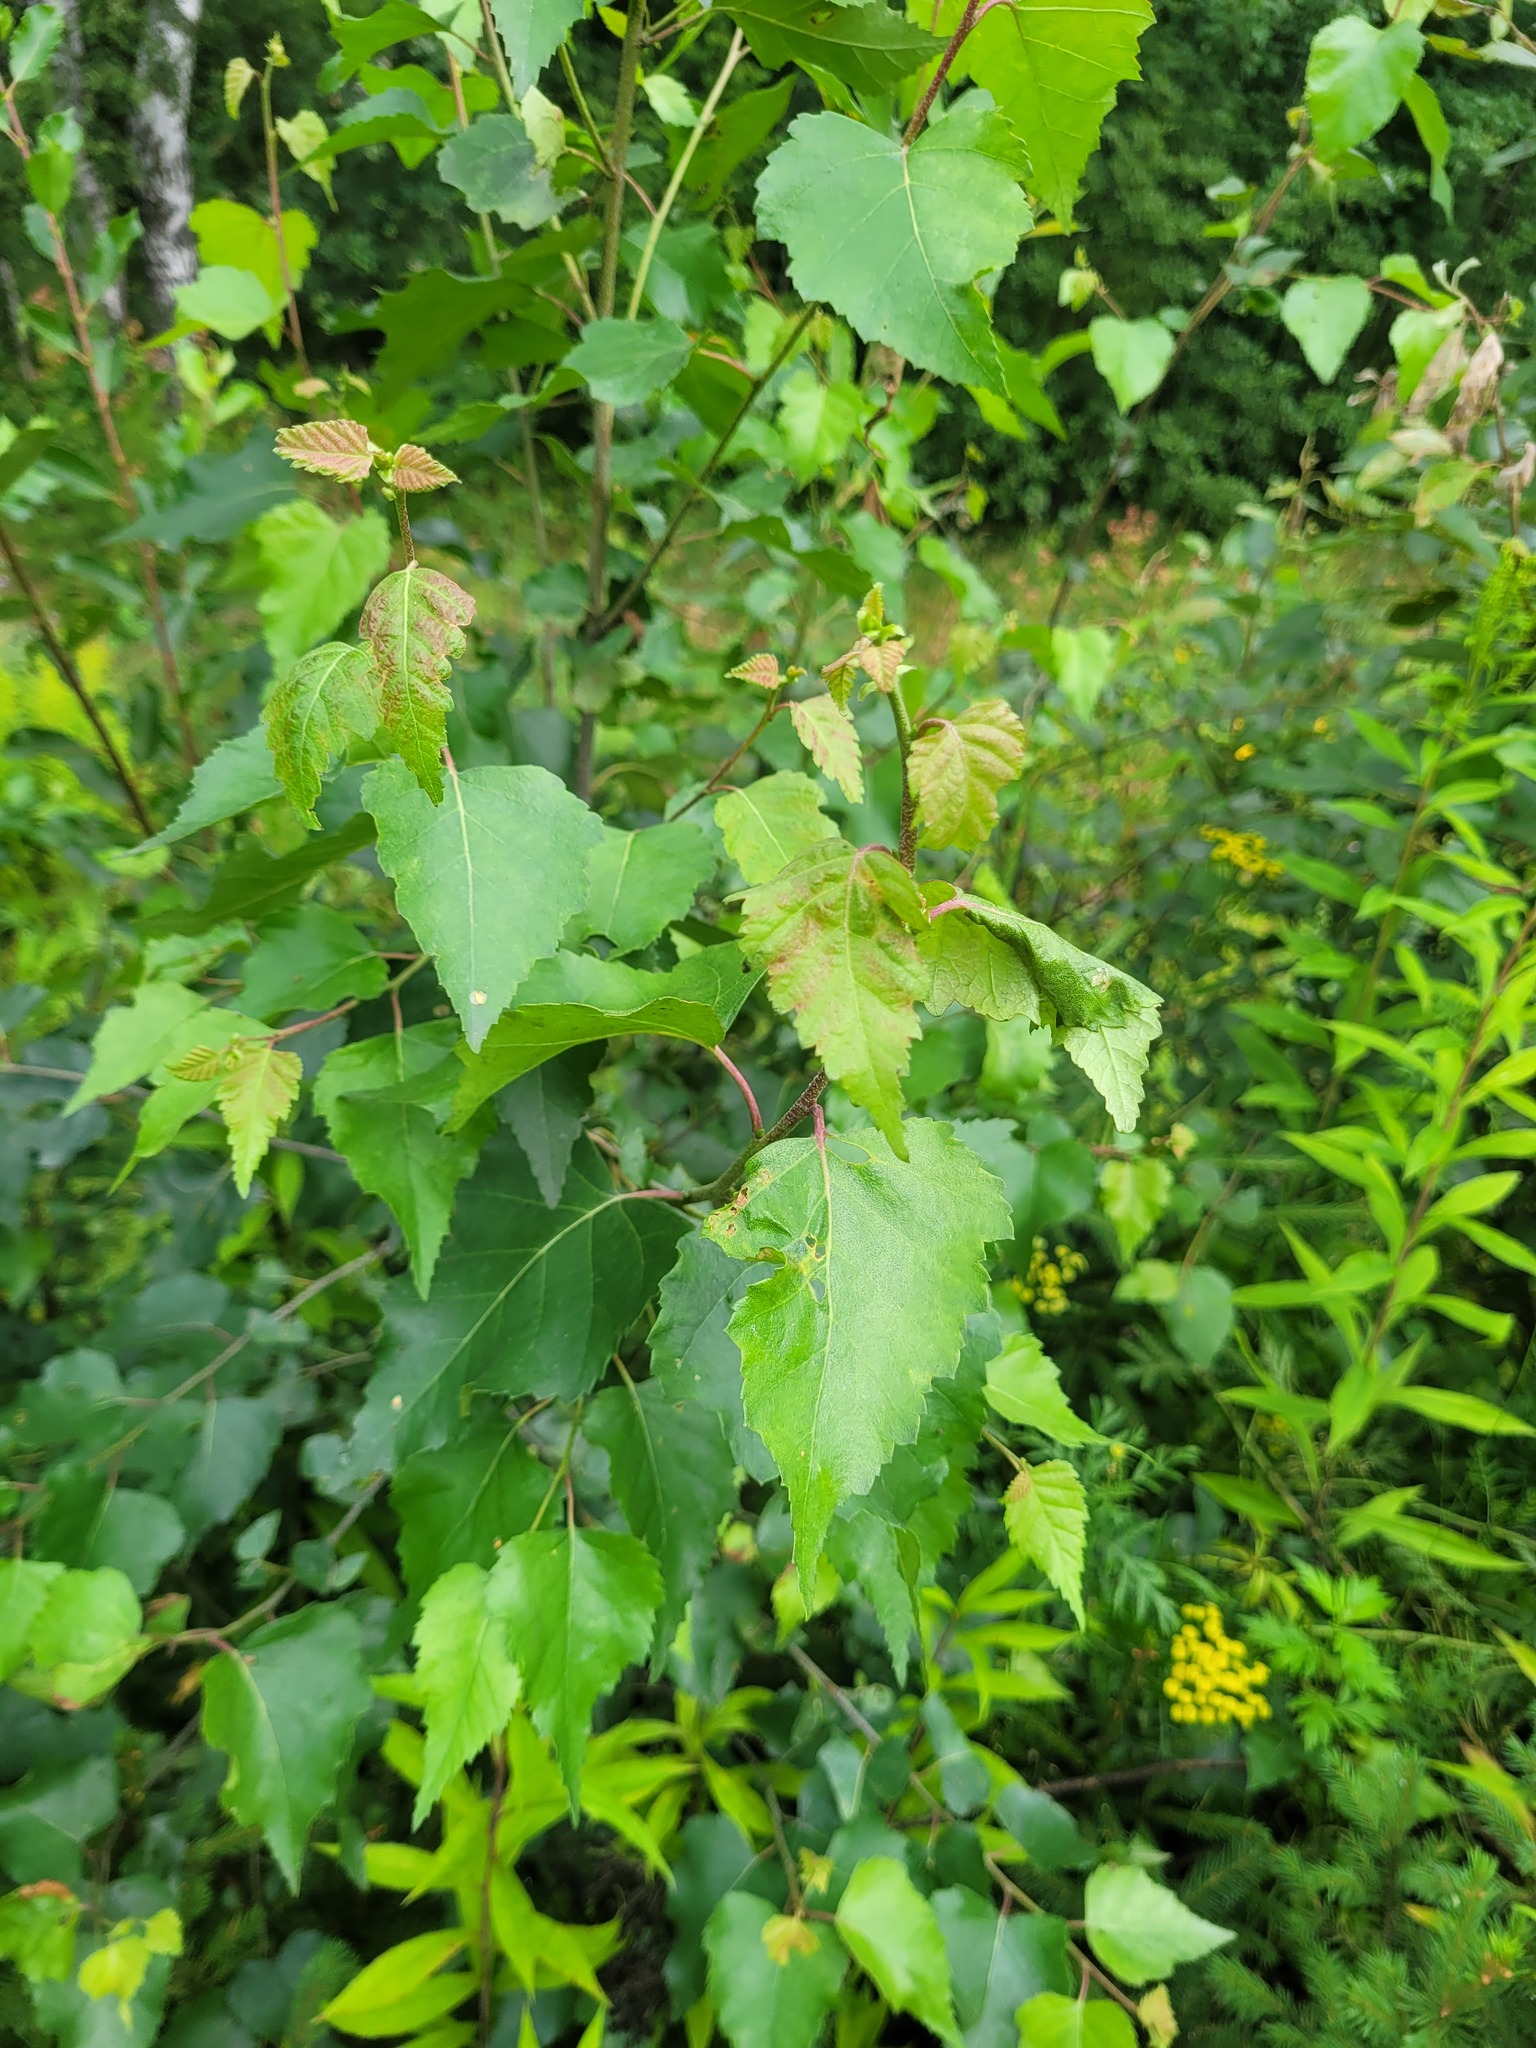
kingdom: Plantae
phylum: Tracheophyta
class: Magnoliopsida
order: Fagales
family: Betulaceae
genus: Betula
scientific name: Betula pendula
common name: Silver birch
